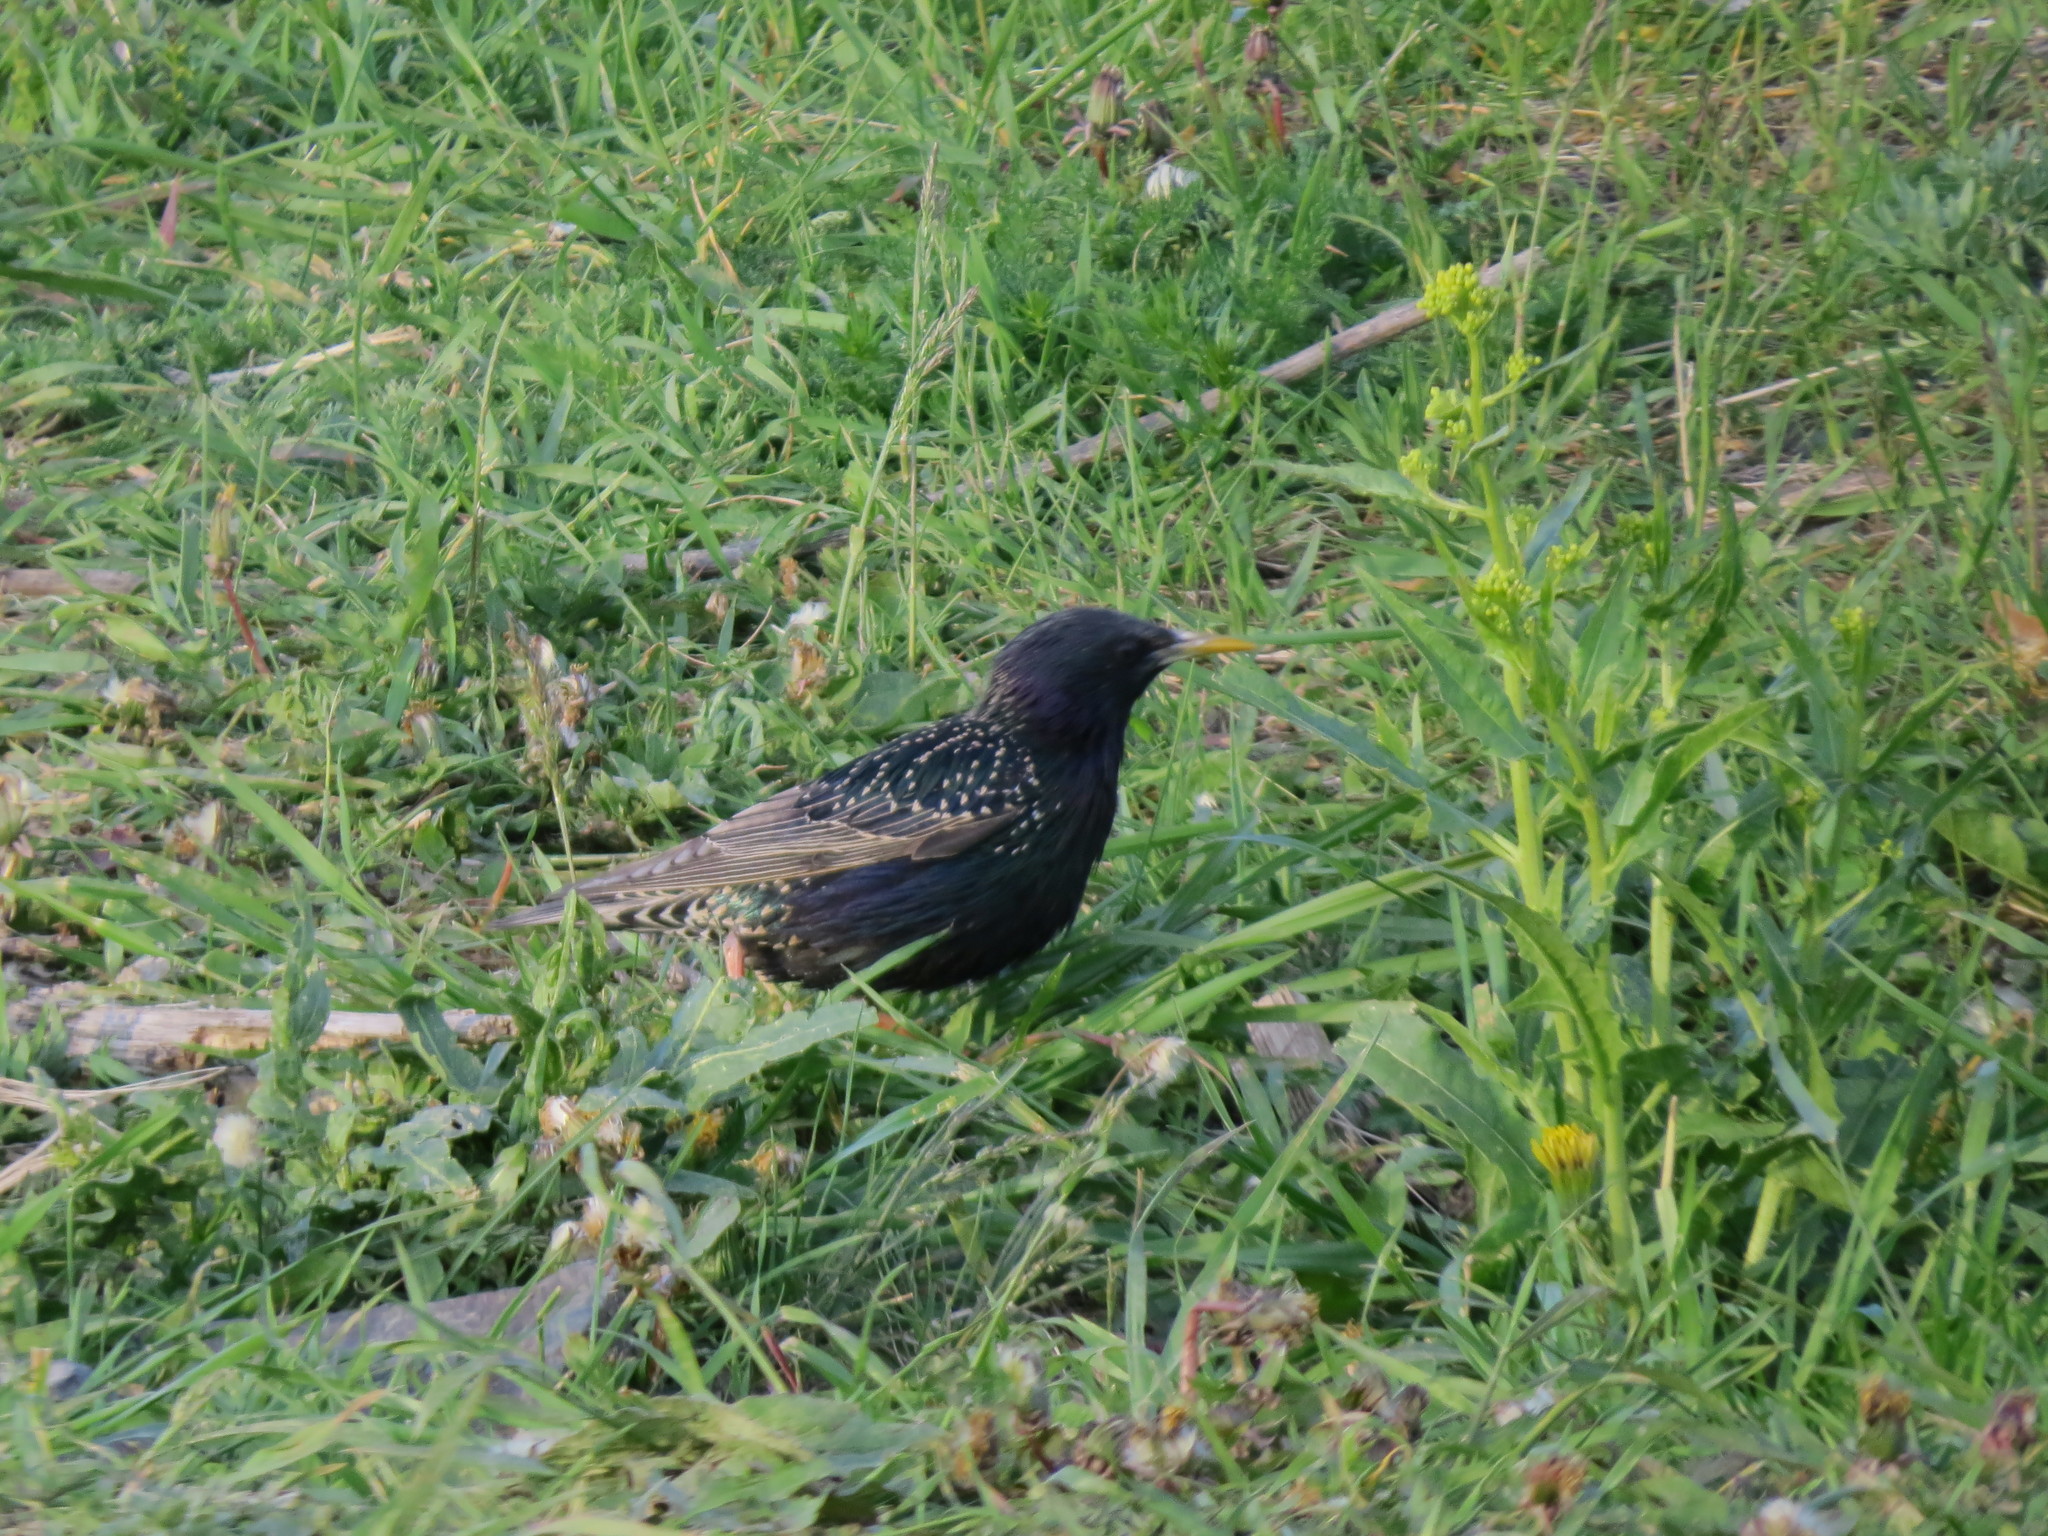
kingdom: Animalia
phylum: Chordata
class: Aves
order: Passeriformes
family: Sturnidae
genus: Sturnus
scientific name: Sturnus vulgaris
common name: Common starling
